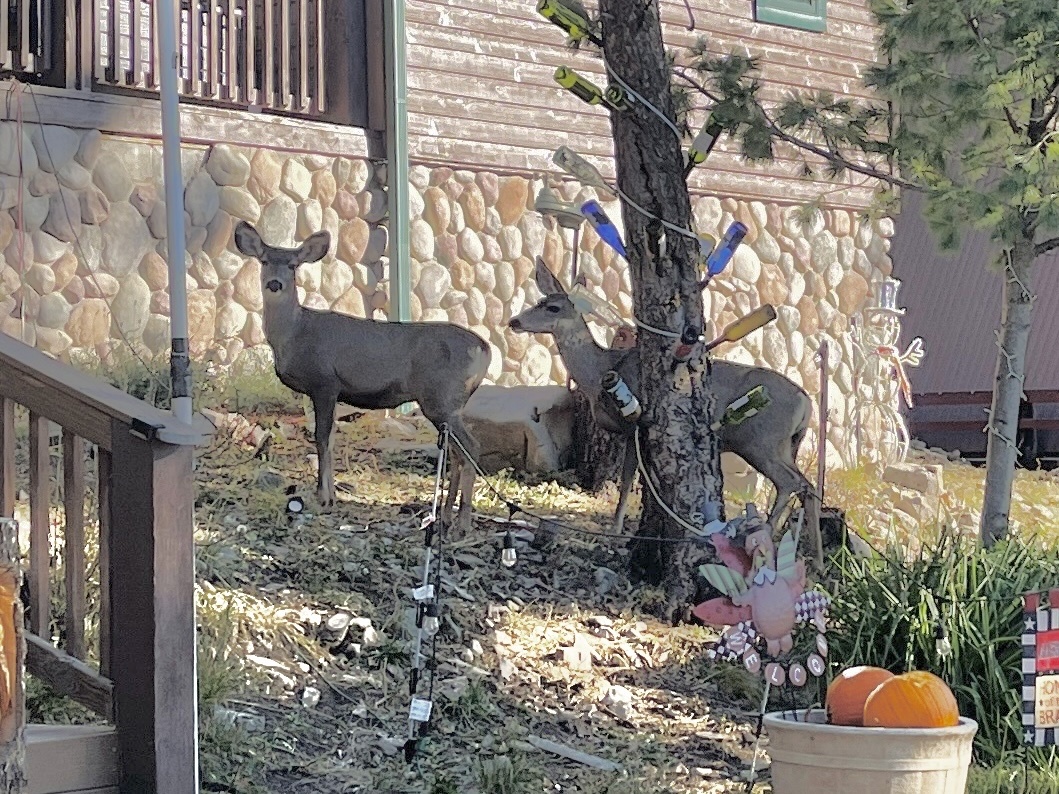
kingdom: Animalia
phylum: Chordata
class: Mammalia
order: Artiodactyla
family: Cervidae
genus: Odocoileus
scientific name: Odocoileus hemionus
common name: Mule deer
